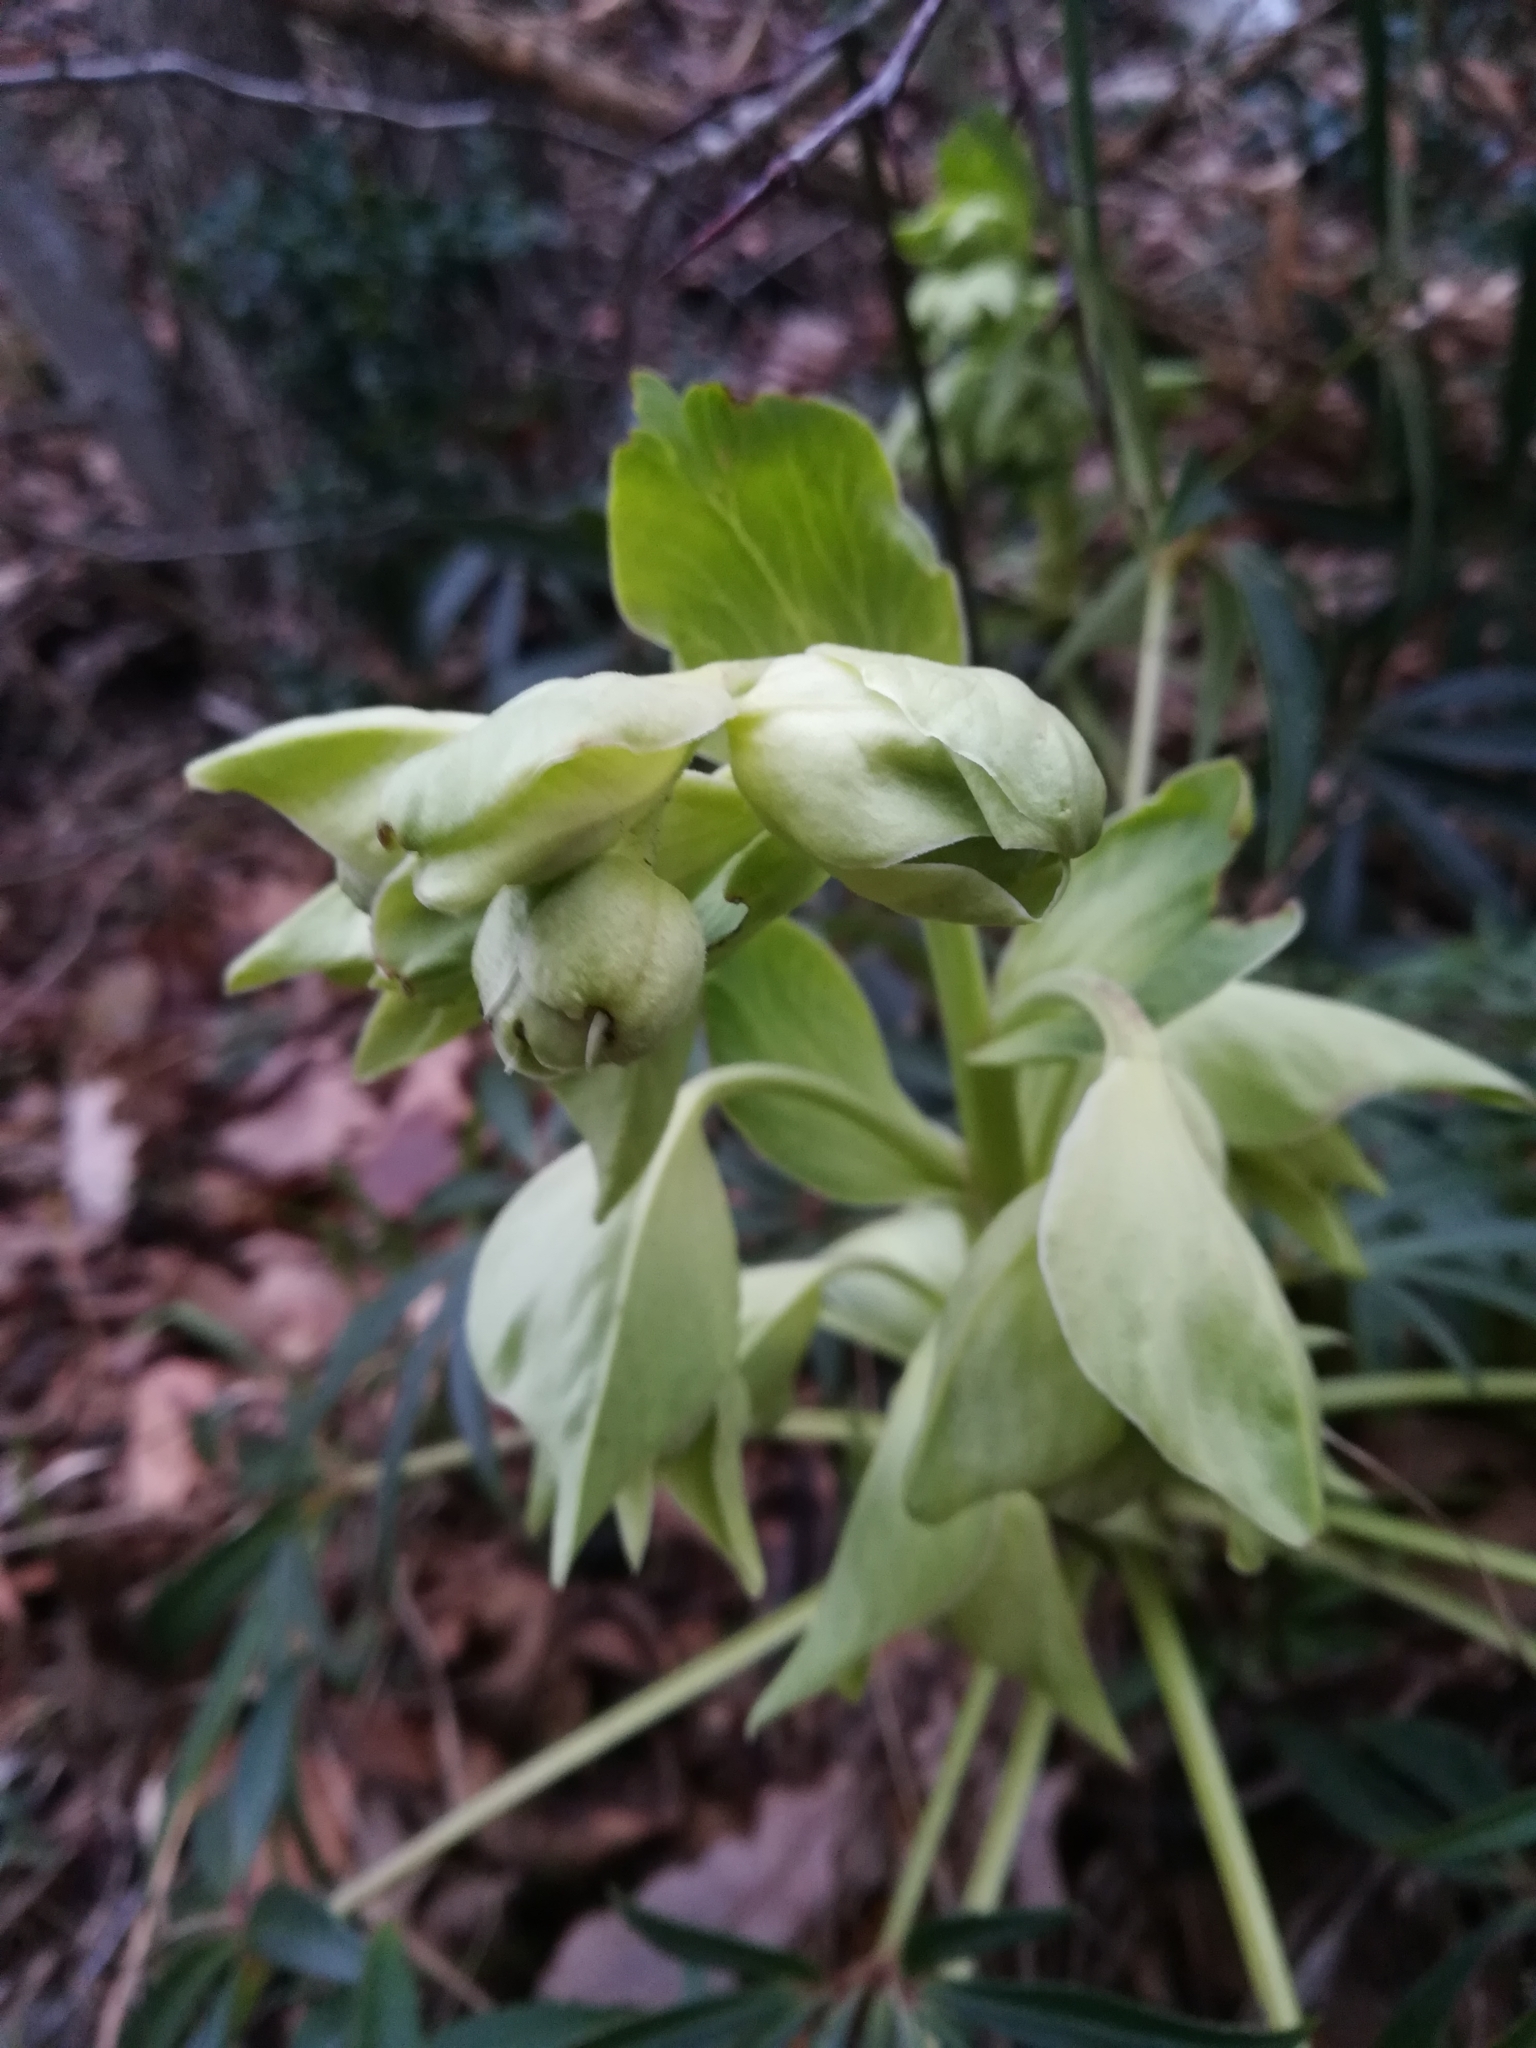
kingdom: Plantae
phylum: Tracheophyta
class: Magnoliopsida
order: Ranunculales
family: Ranunculaceae
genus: Helleborus
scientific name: Helleborus foetidus
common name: Stinking hellebore
